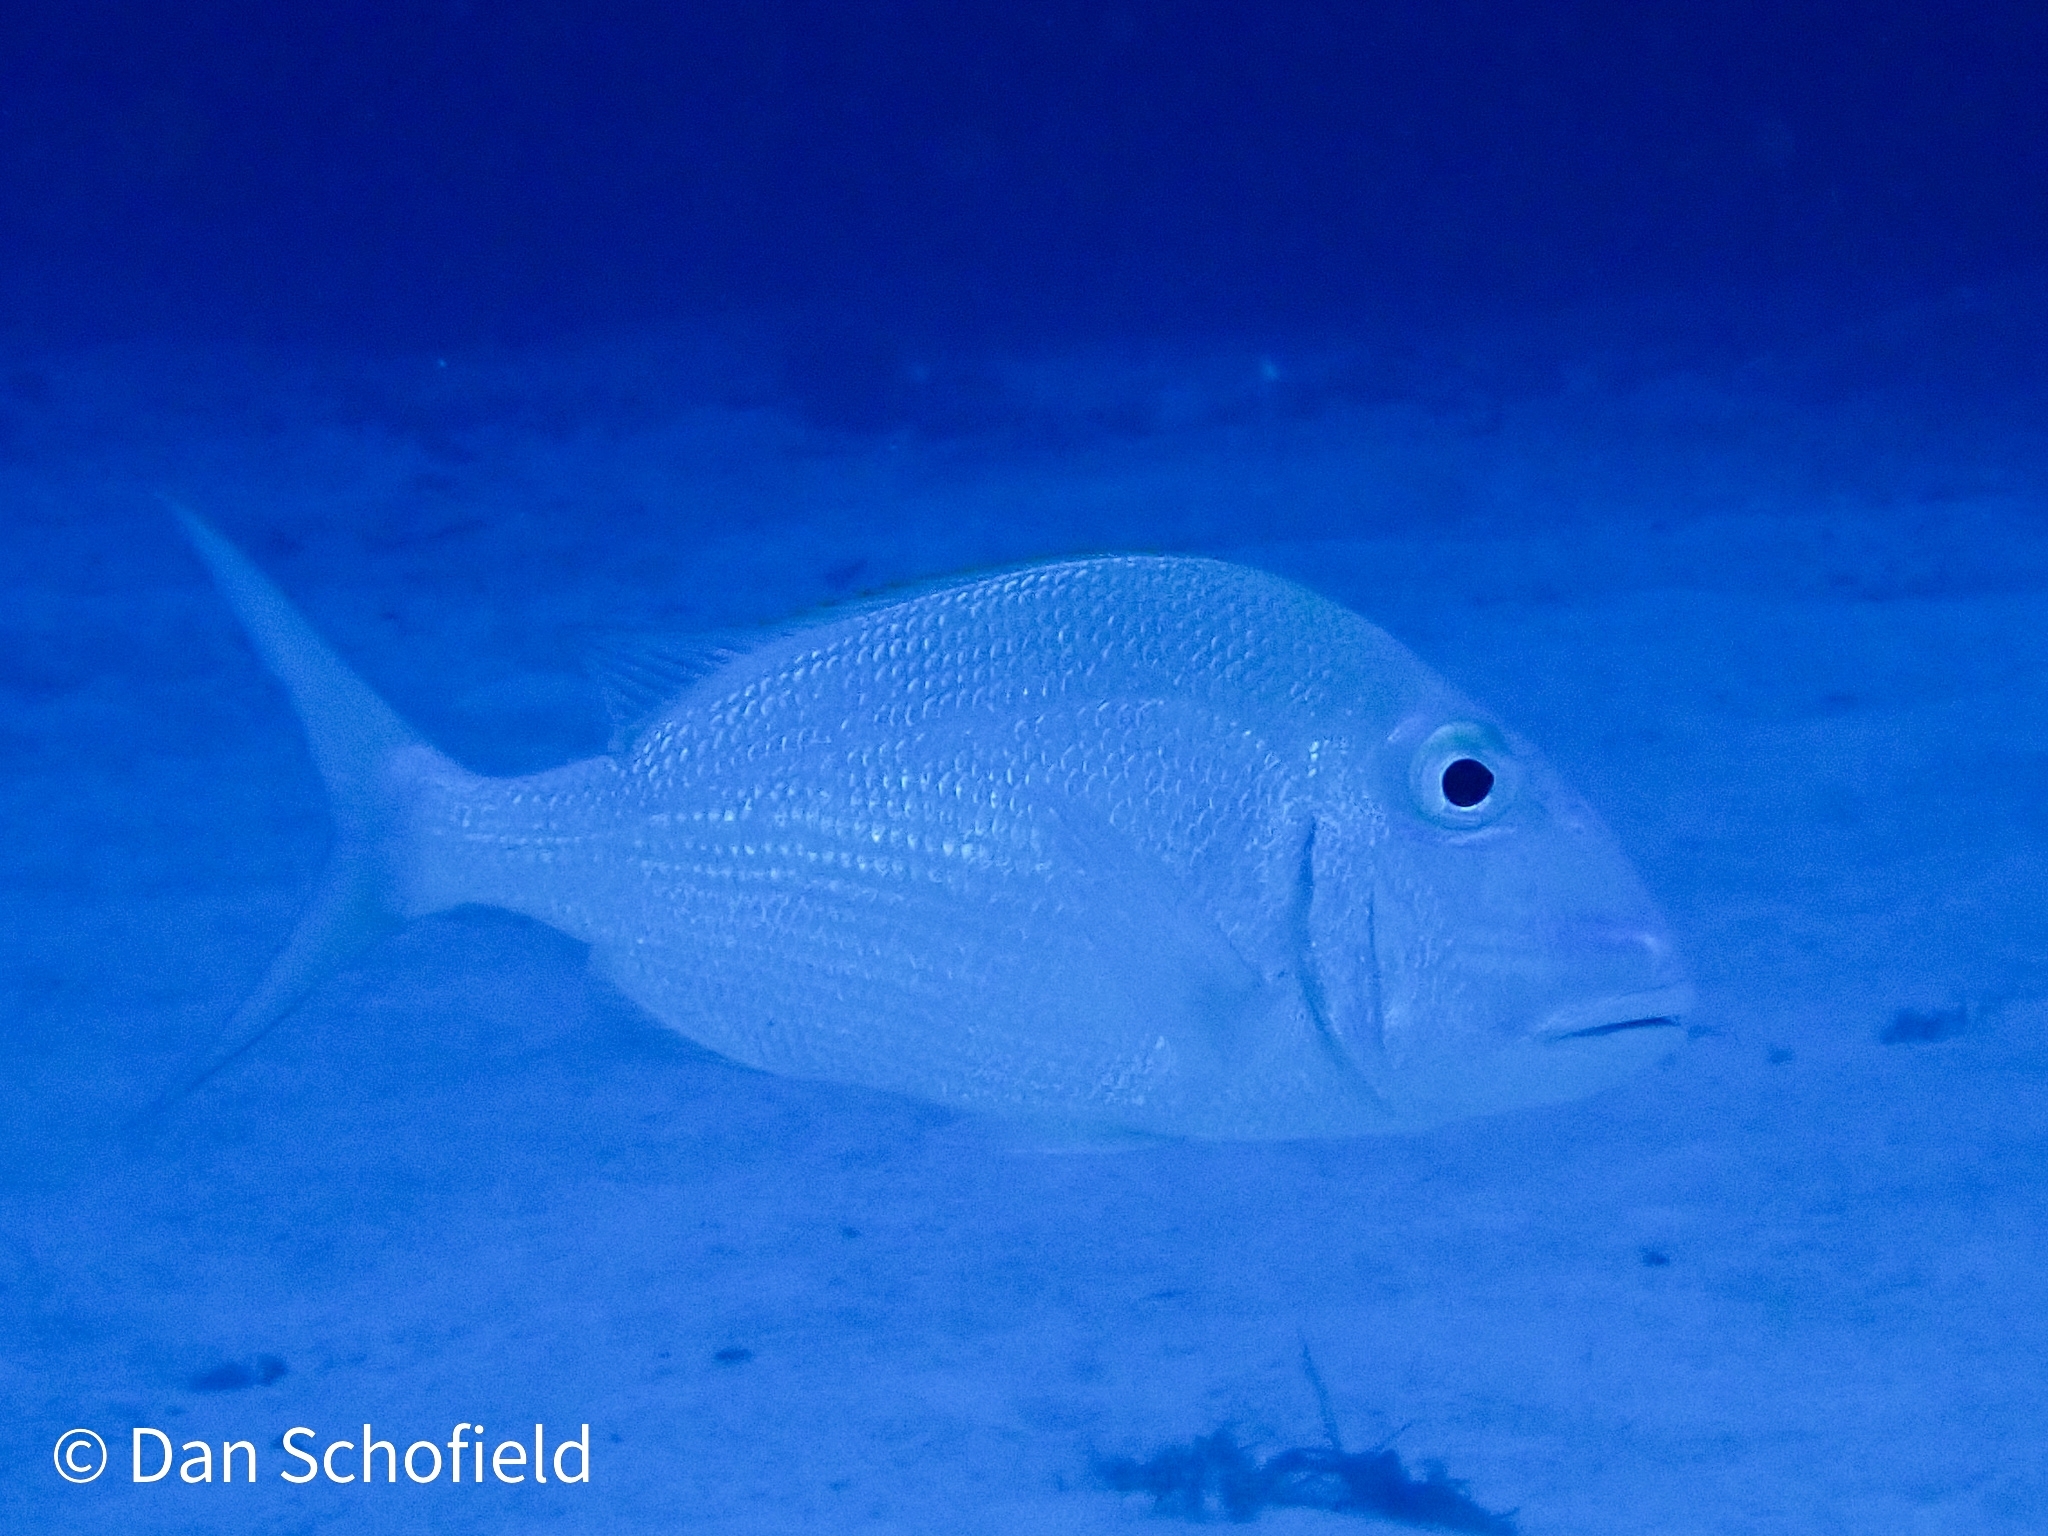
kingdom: Animalia
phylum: Chordata
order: Perciformes
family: Sparidae
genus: Calamus
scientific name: Calamus bajonado
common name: Jolthead porgy
